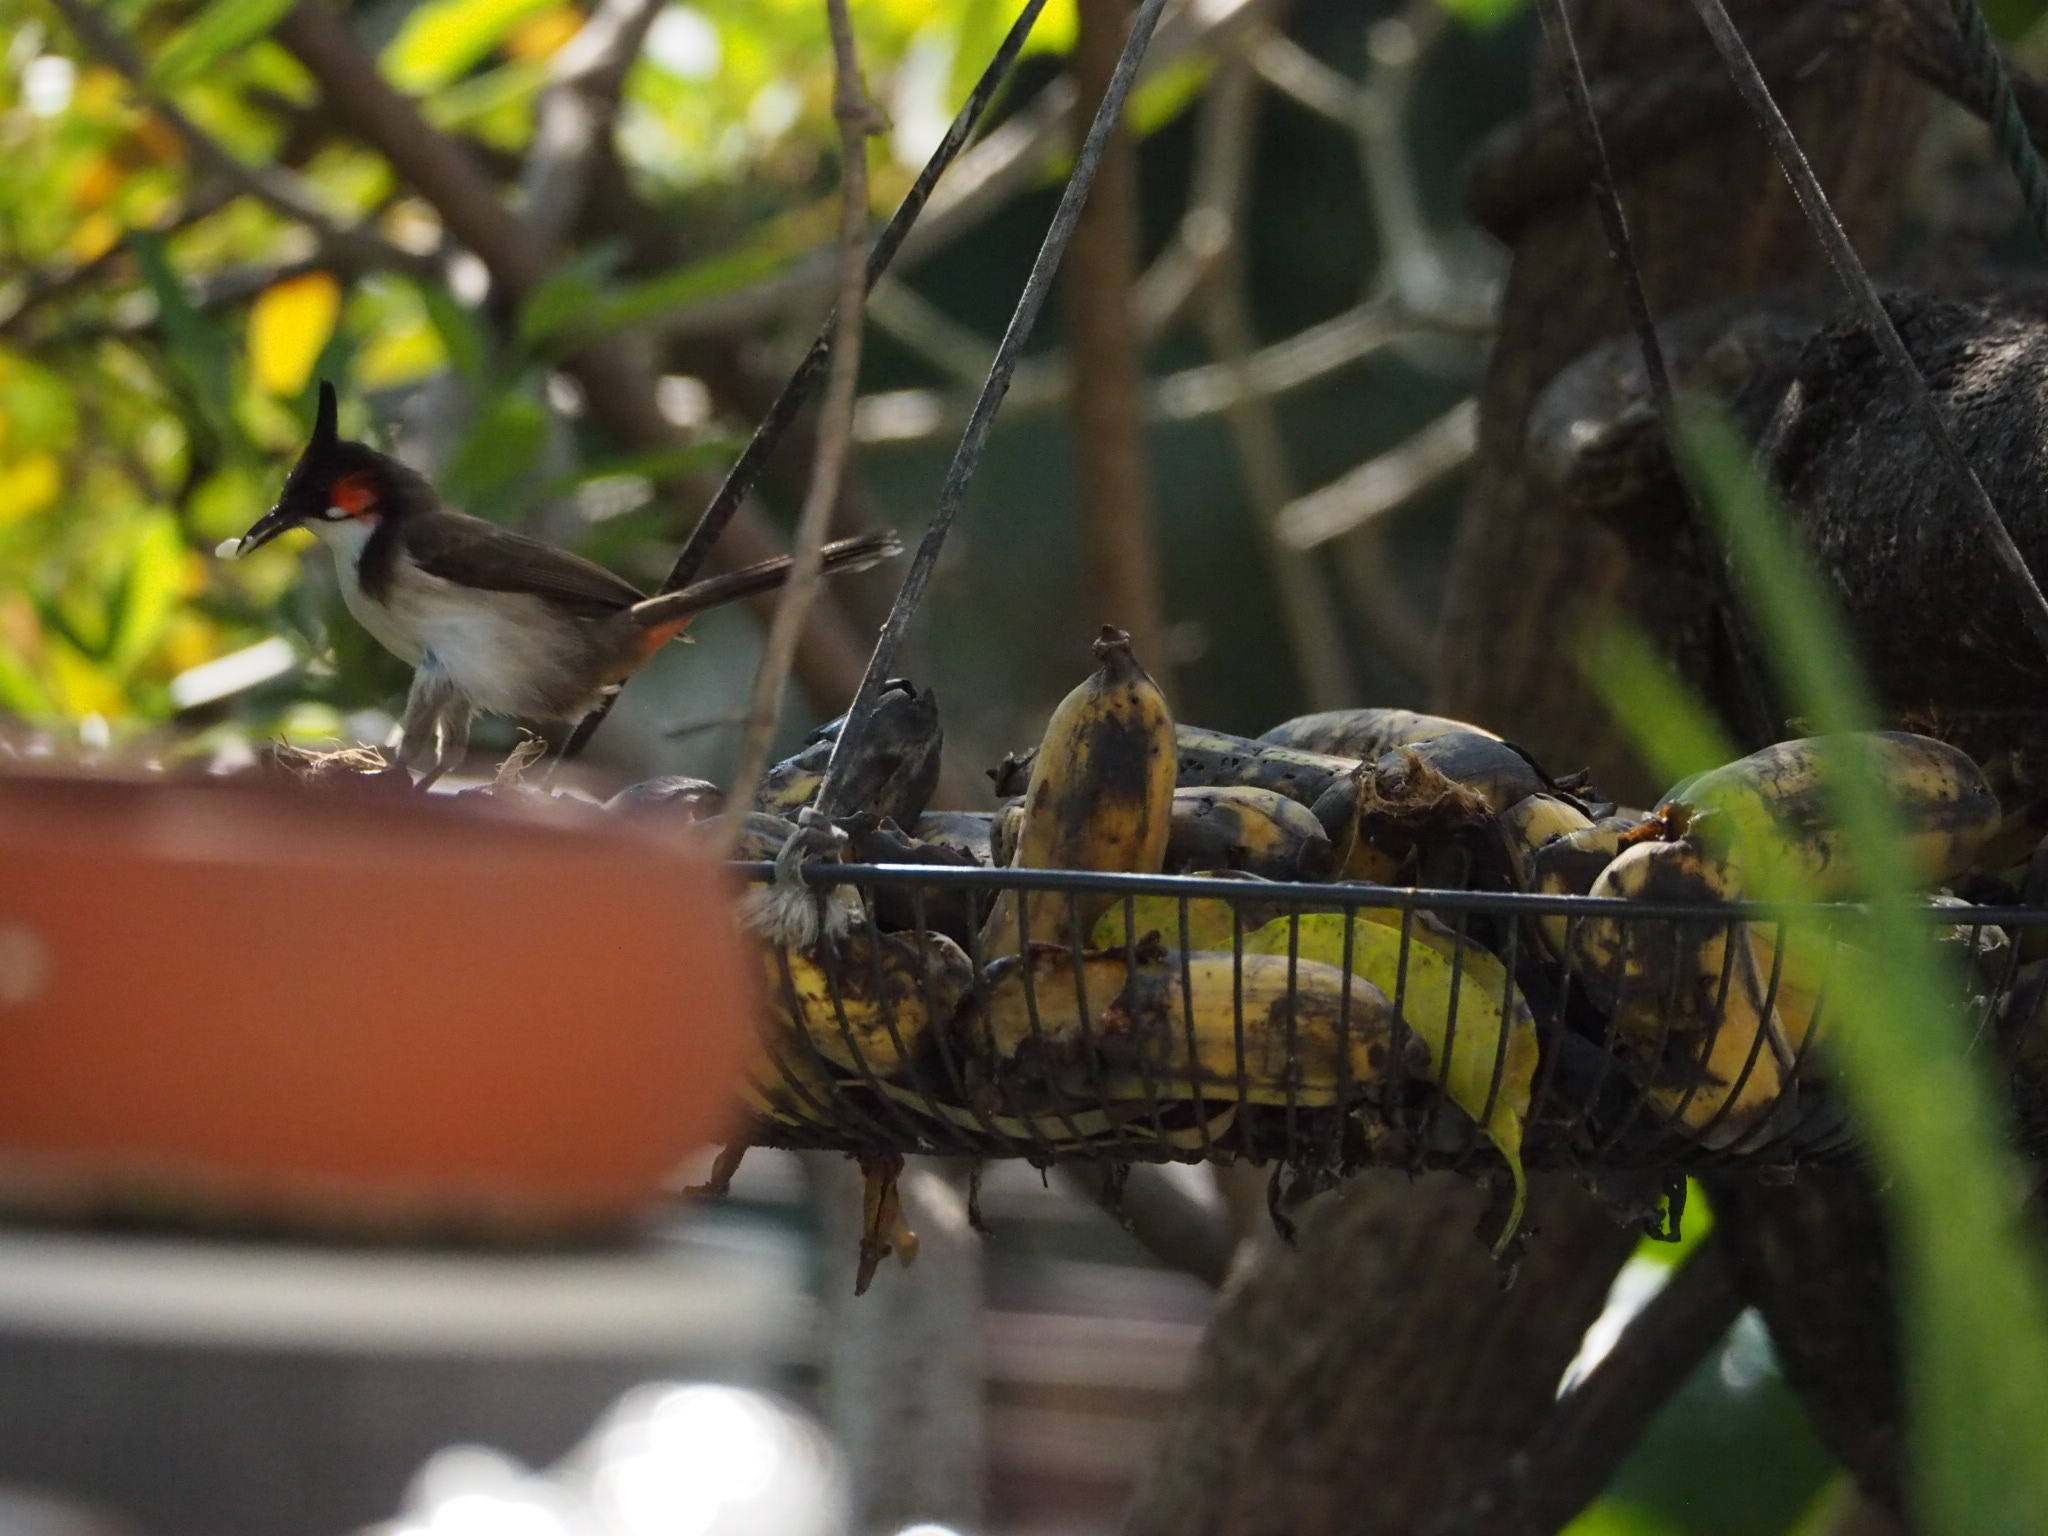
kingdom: Animalia
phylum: Chordata
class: Aves
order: Passeriformes
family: Pycnonotidae
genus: Pycnonotus
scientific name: Pycnonotus jocosus
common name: Red-whiskered bulbul
